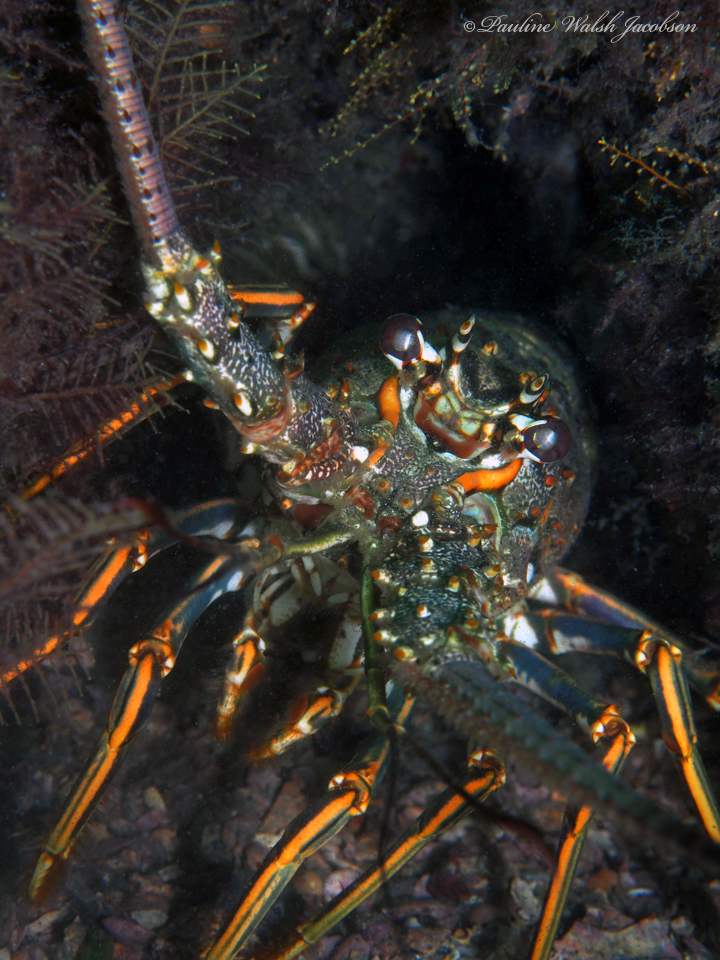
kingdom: Animalia
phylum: Arthropoda
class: Malacostraca
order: Decapoda
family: Palinuridae
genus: Panulirus
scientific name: Panulirus argus
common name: Caribbean spiny lobster
